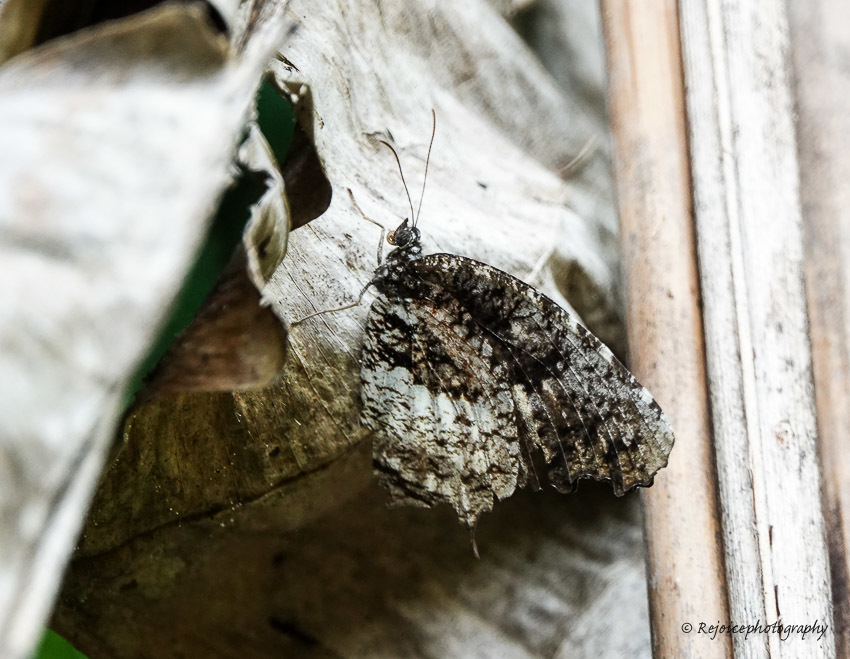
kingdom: Animalia
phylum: Arthropoda
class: Insecta
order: Lepidoptera
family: Nymphalidae
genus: Elymnias
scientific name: Elymnias nesaea
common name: Tiger palmfly
